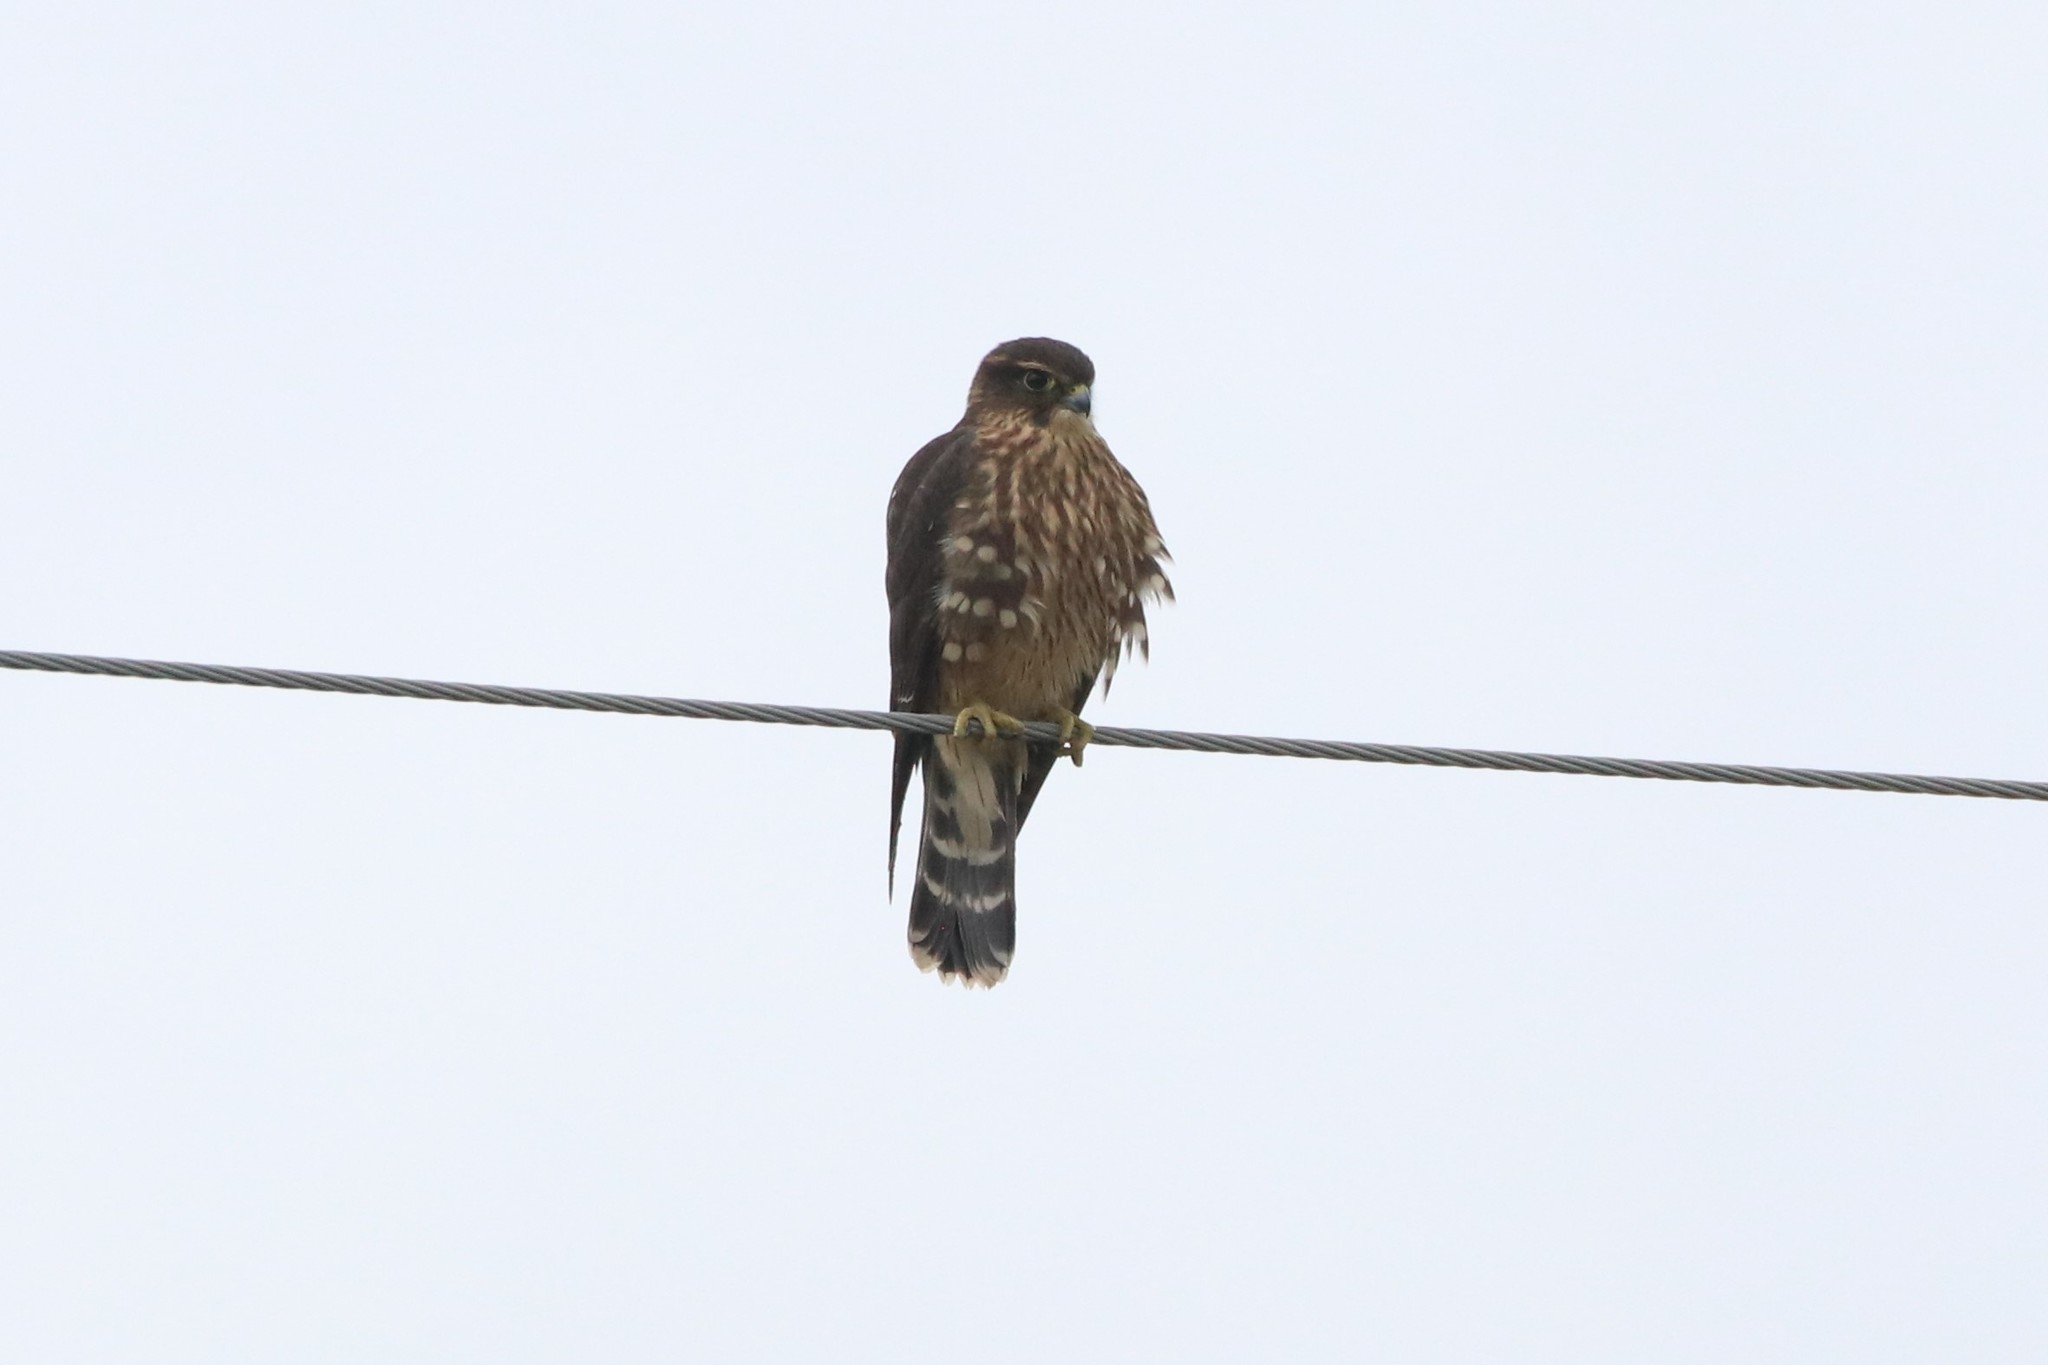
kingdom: Animalia
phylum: Chordata
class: Aves
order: Falconiformes
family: Falconidae
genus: Falco
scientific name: Falco columbarius
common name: Merlin
